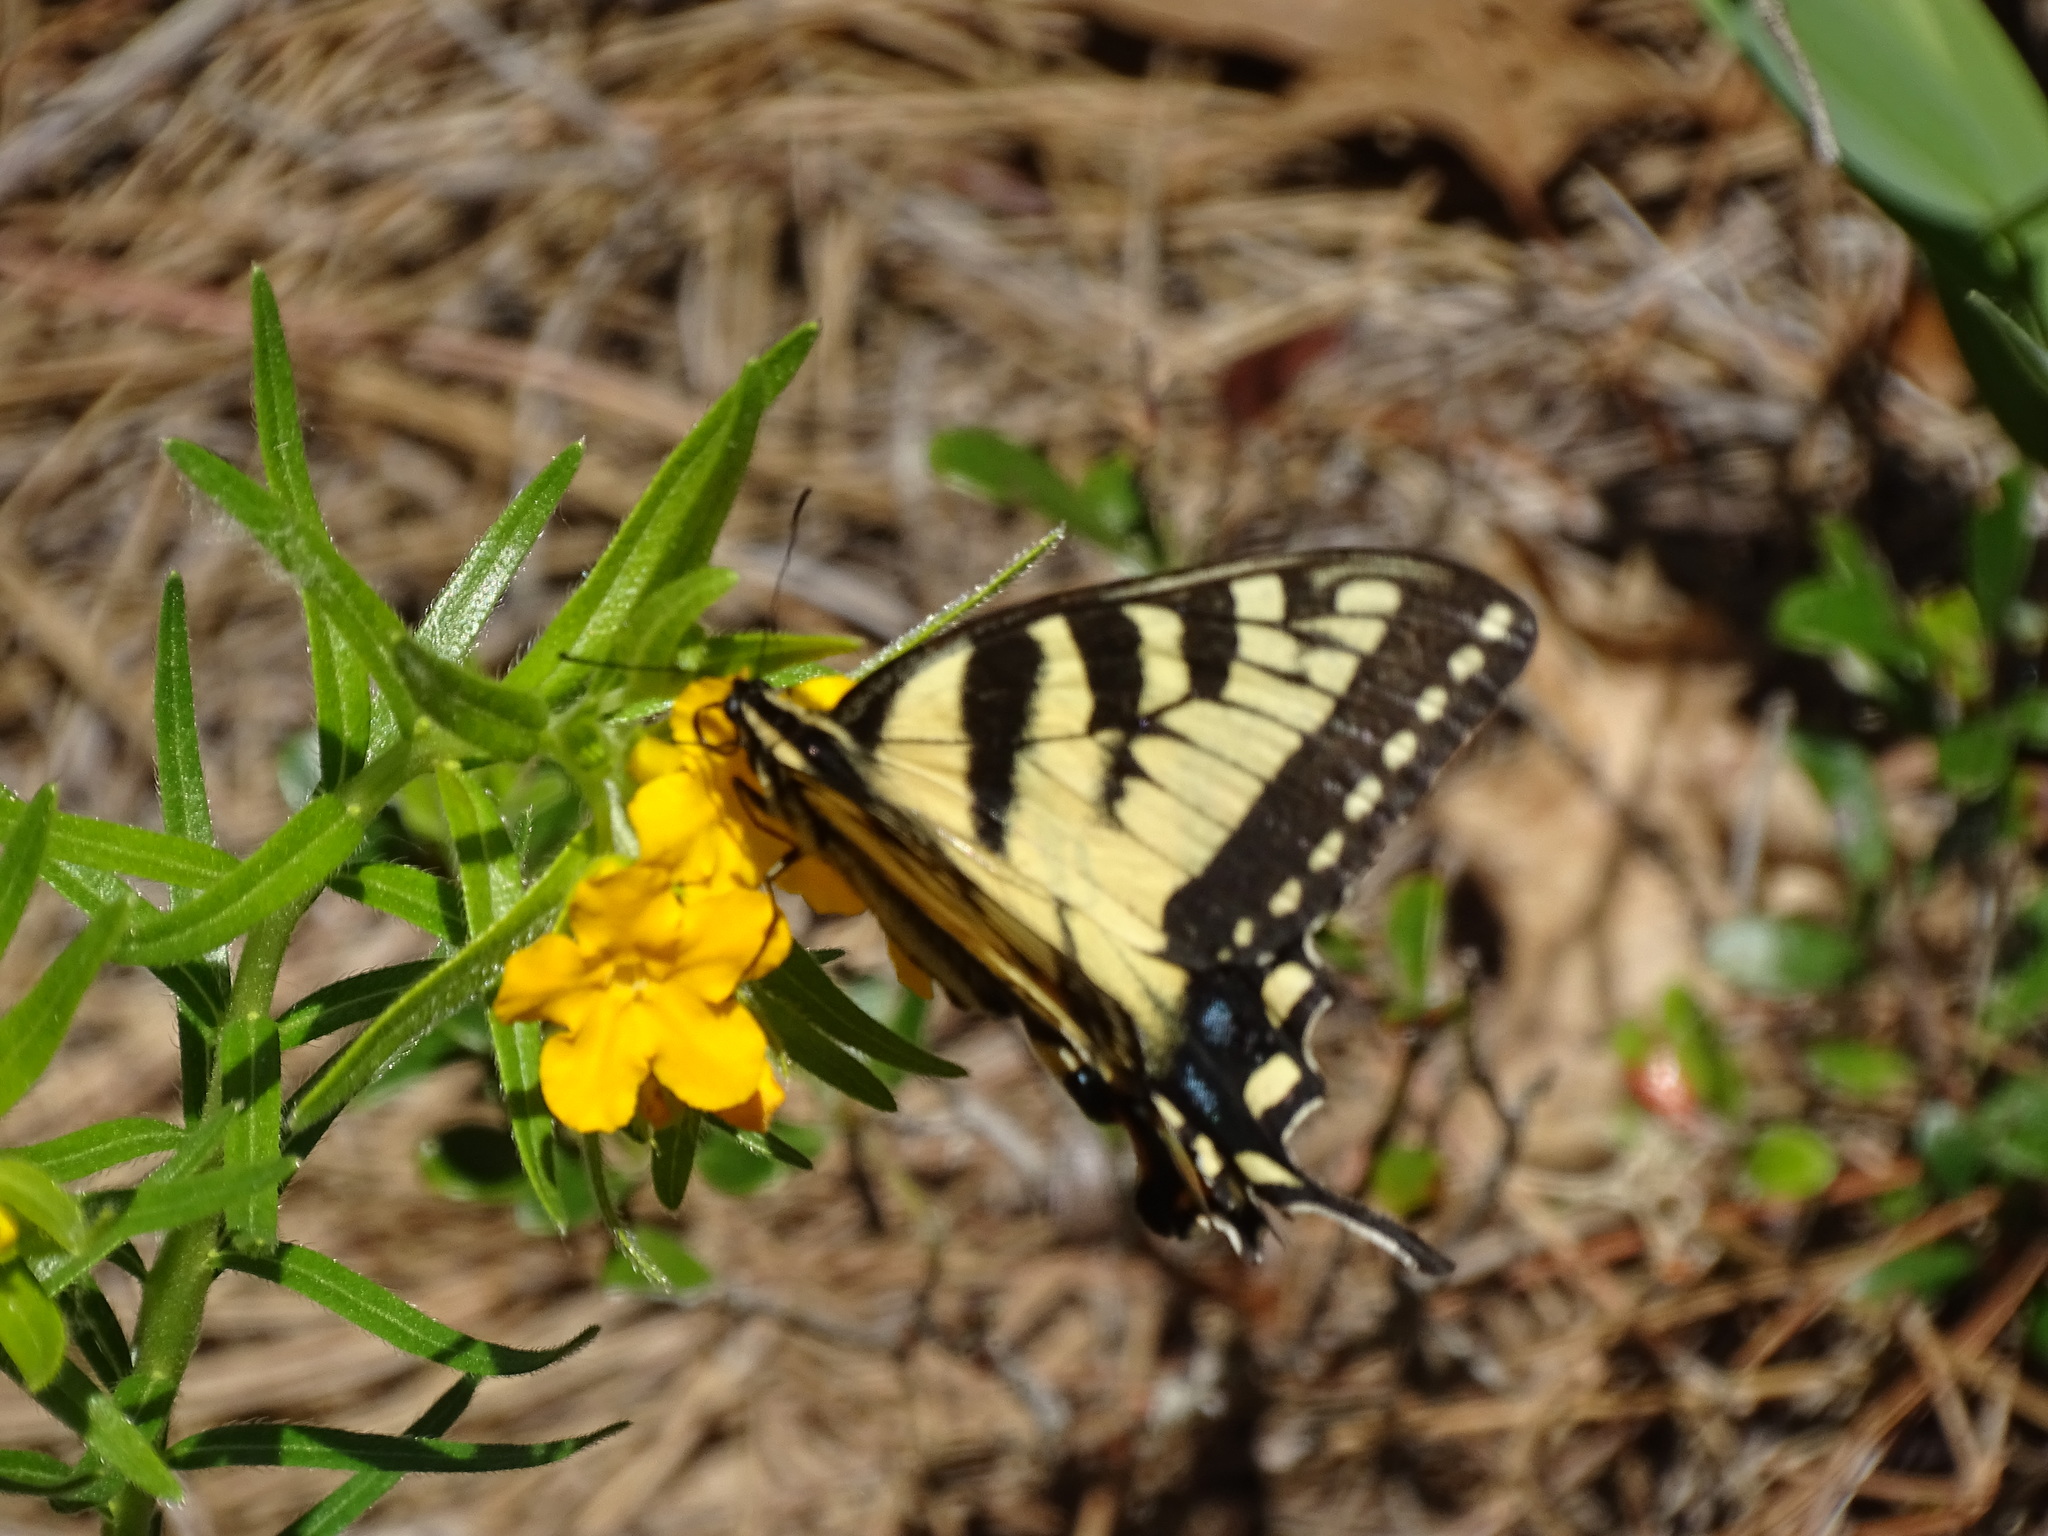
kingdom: Animalia
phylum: Arthropoda
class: Insecta
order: Lepidoptera
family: Papilionidae
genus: Papilio
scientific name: Papilio glaucus
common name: Tiger swallowtail
